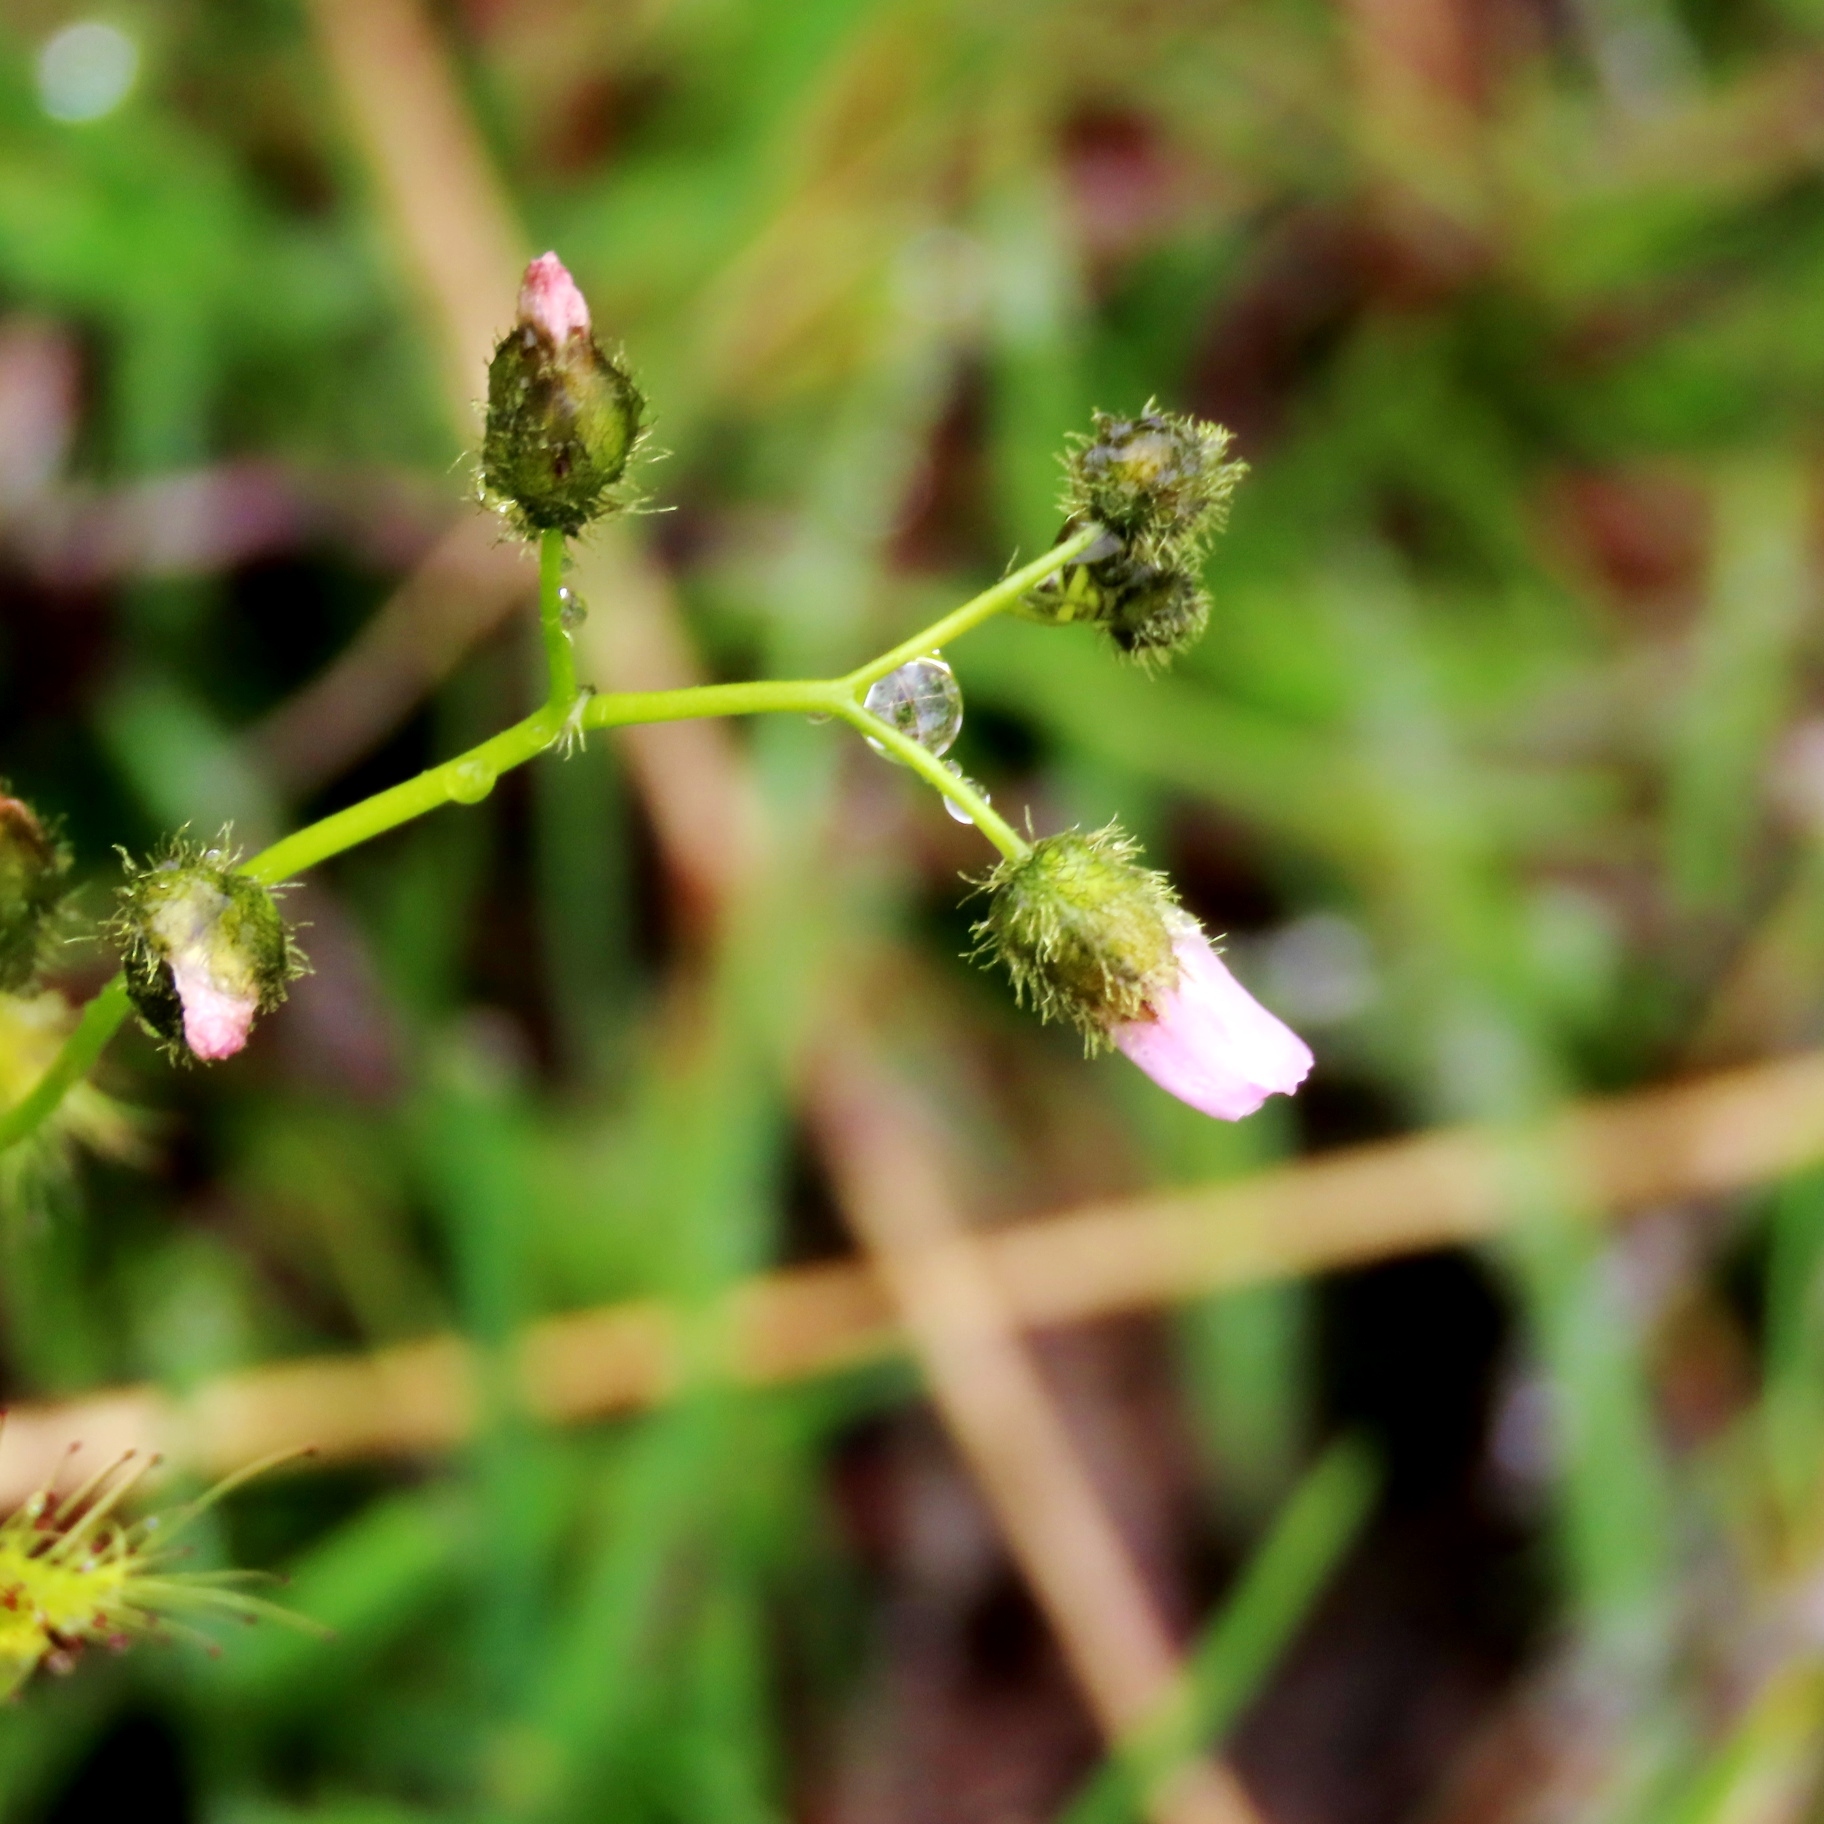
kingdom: Plantae
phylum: Tracheophyta
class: Magnoliopsida
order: Caryophyllales
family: Droseraceae
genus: Drosera
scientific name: Drosera peltata
